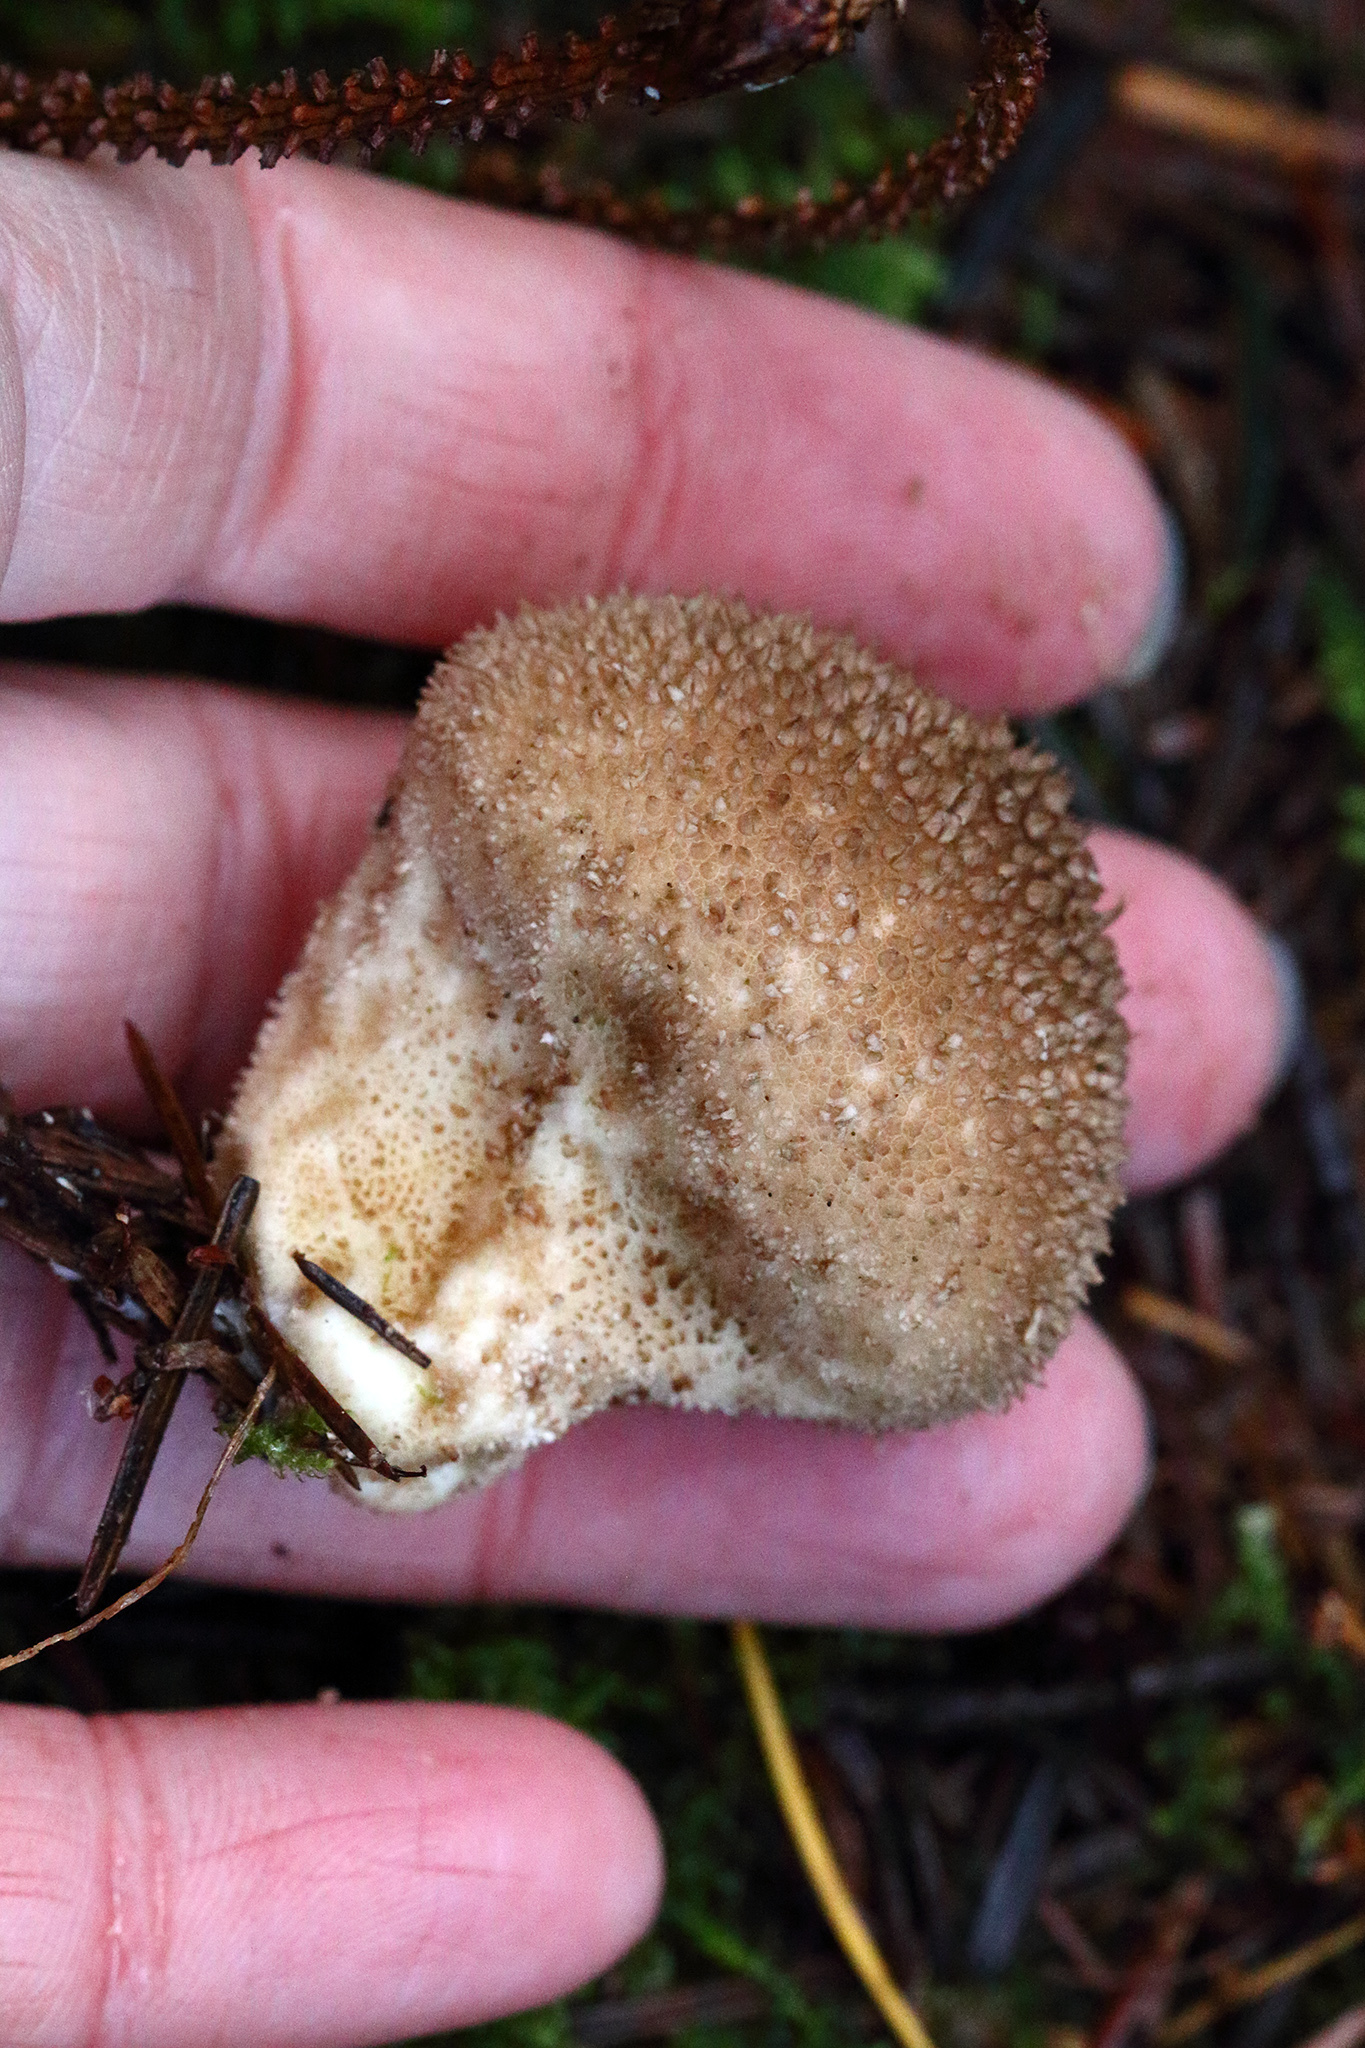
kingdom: Fungi
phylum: Basidiomycota
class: Agaricomycetes
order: Agaricales
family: Lycoperdaceae
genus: Lycoperdon
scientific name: Lycoperdon nigrescens
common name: Blackish puffball
